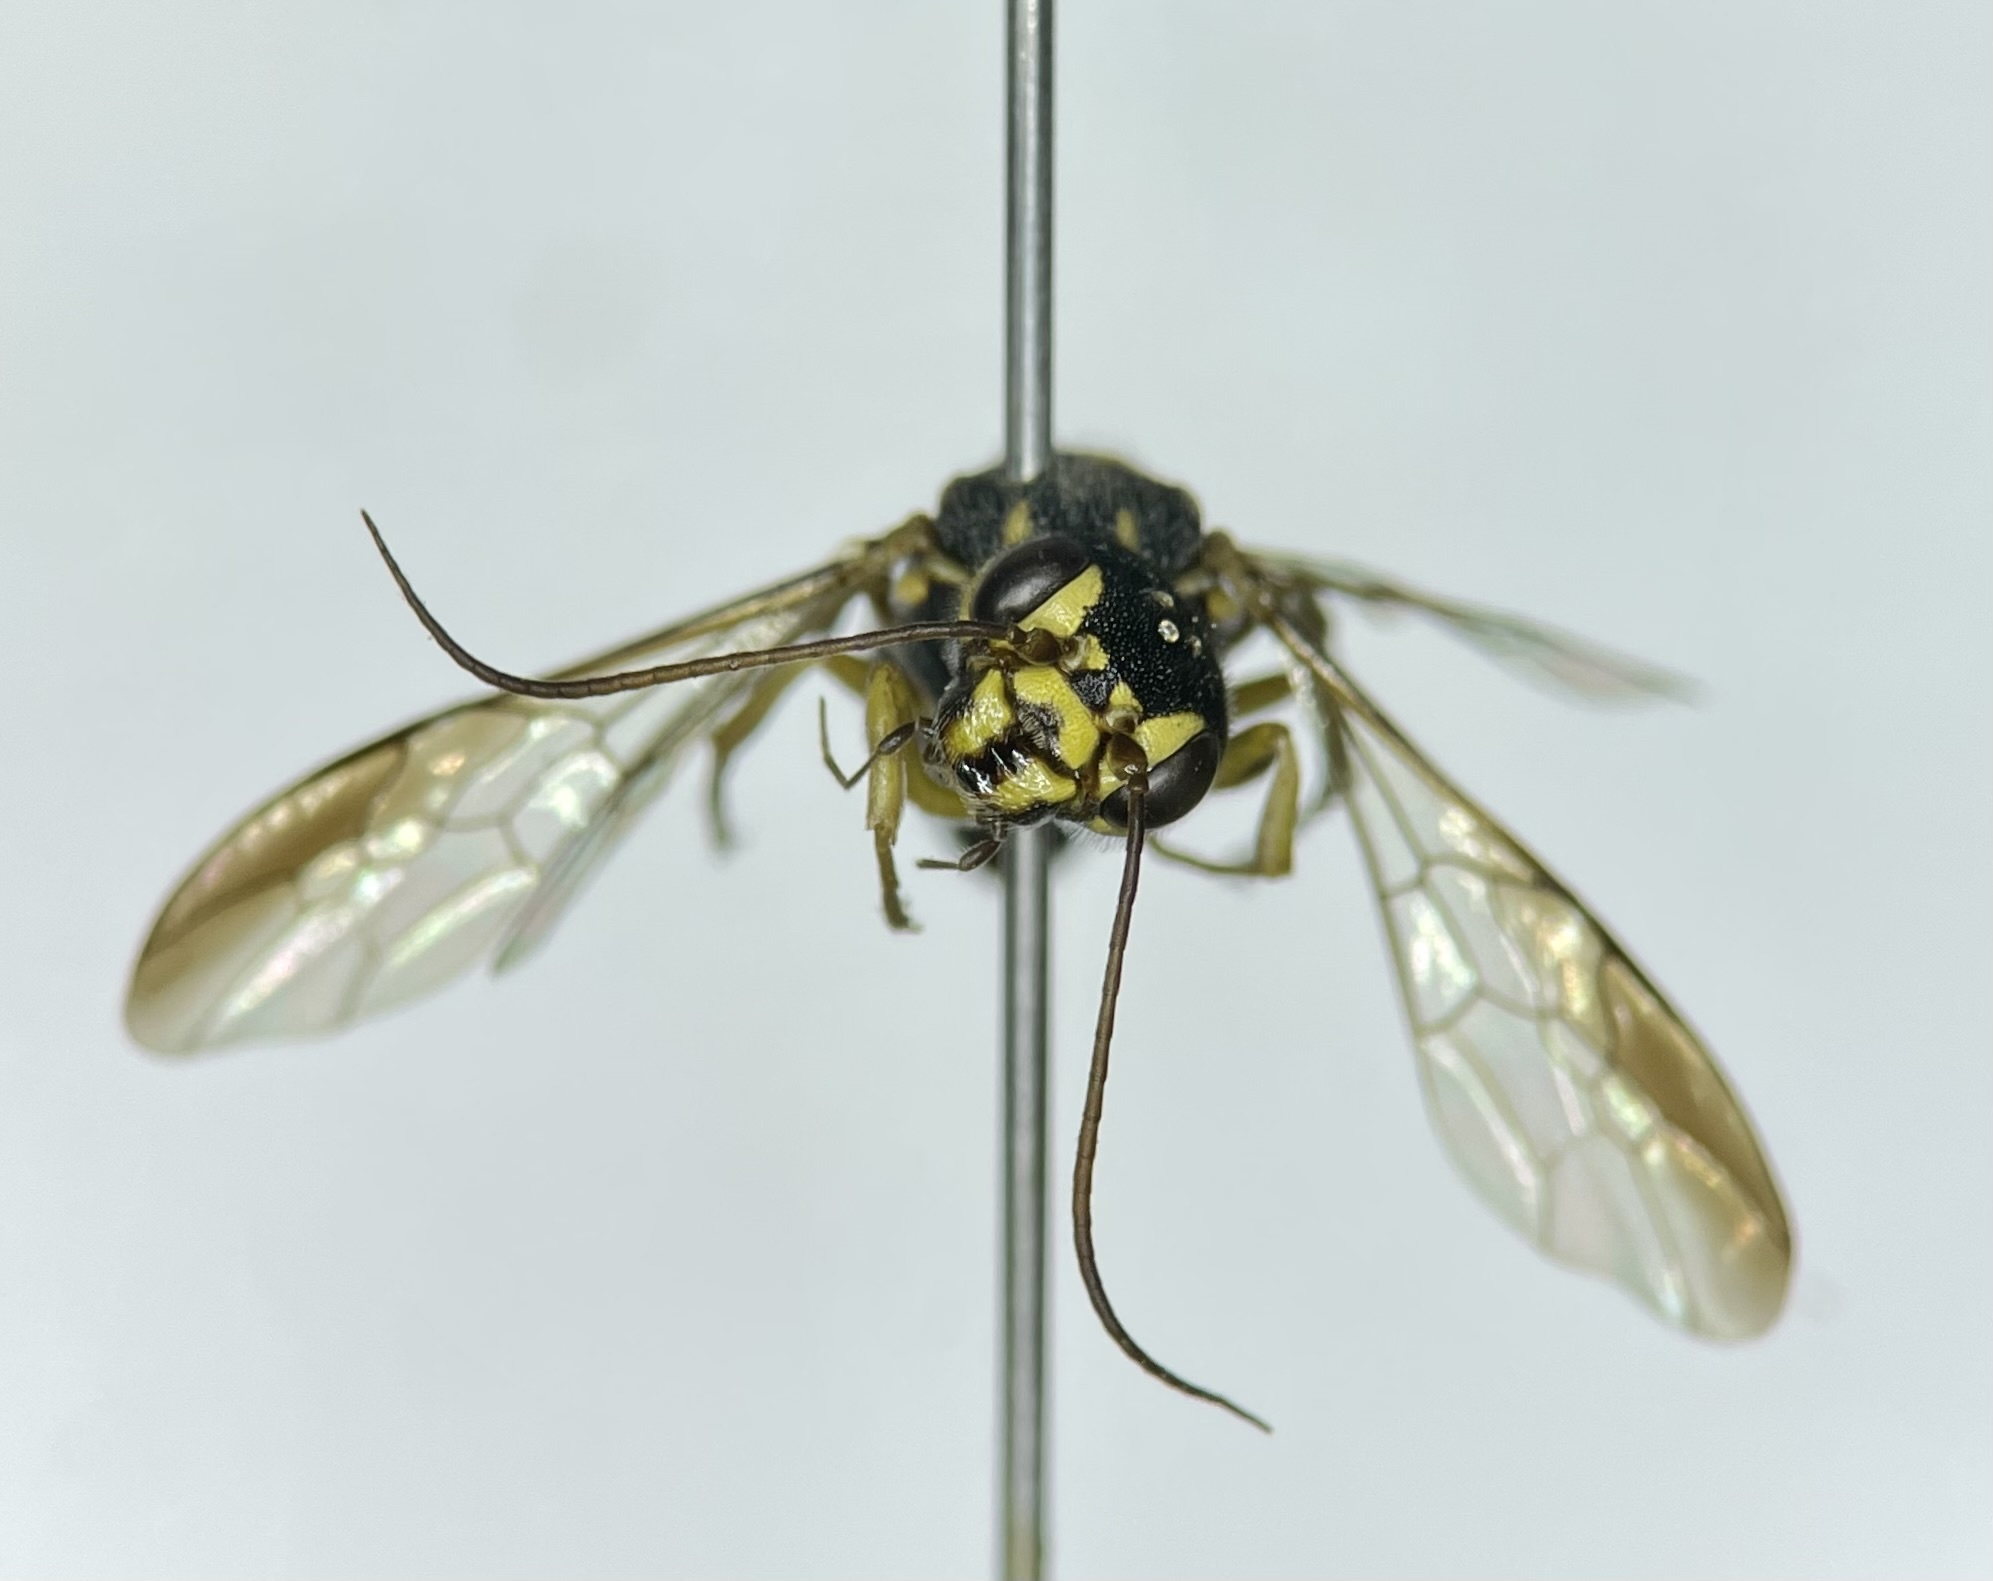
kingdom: Animalia
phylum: Arthropoda
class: Insecta
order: Hymenoptera
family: Trigonalidae
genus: Taeniogonalos
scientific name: Taeniogonalos gundlachii
